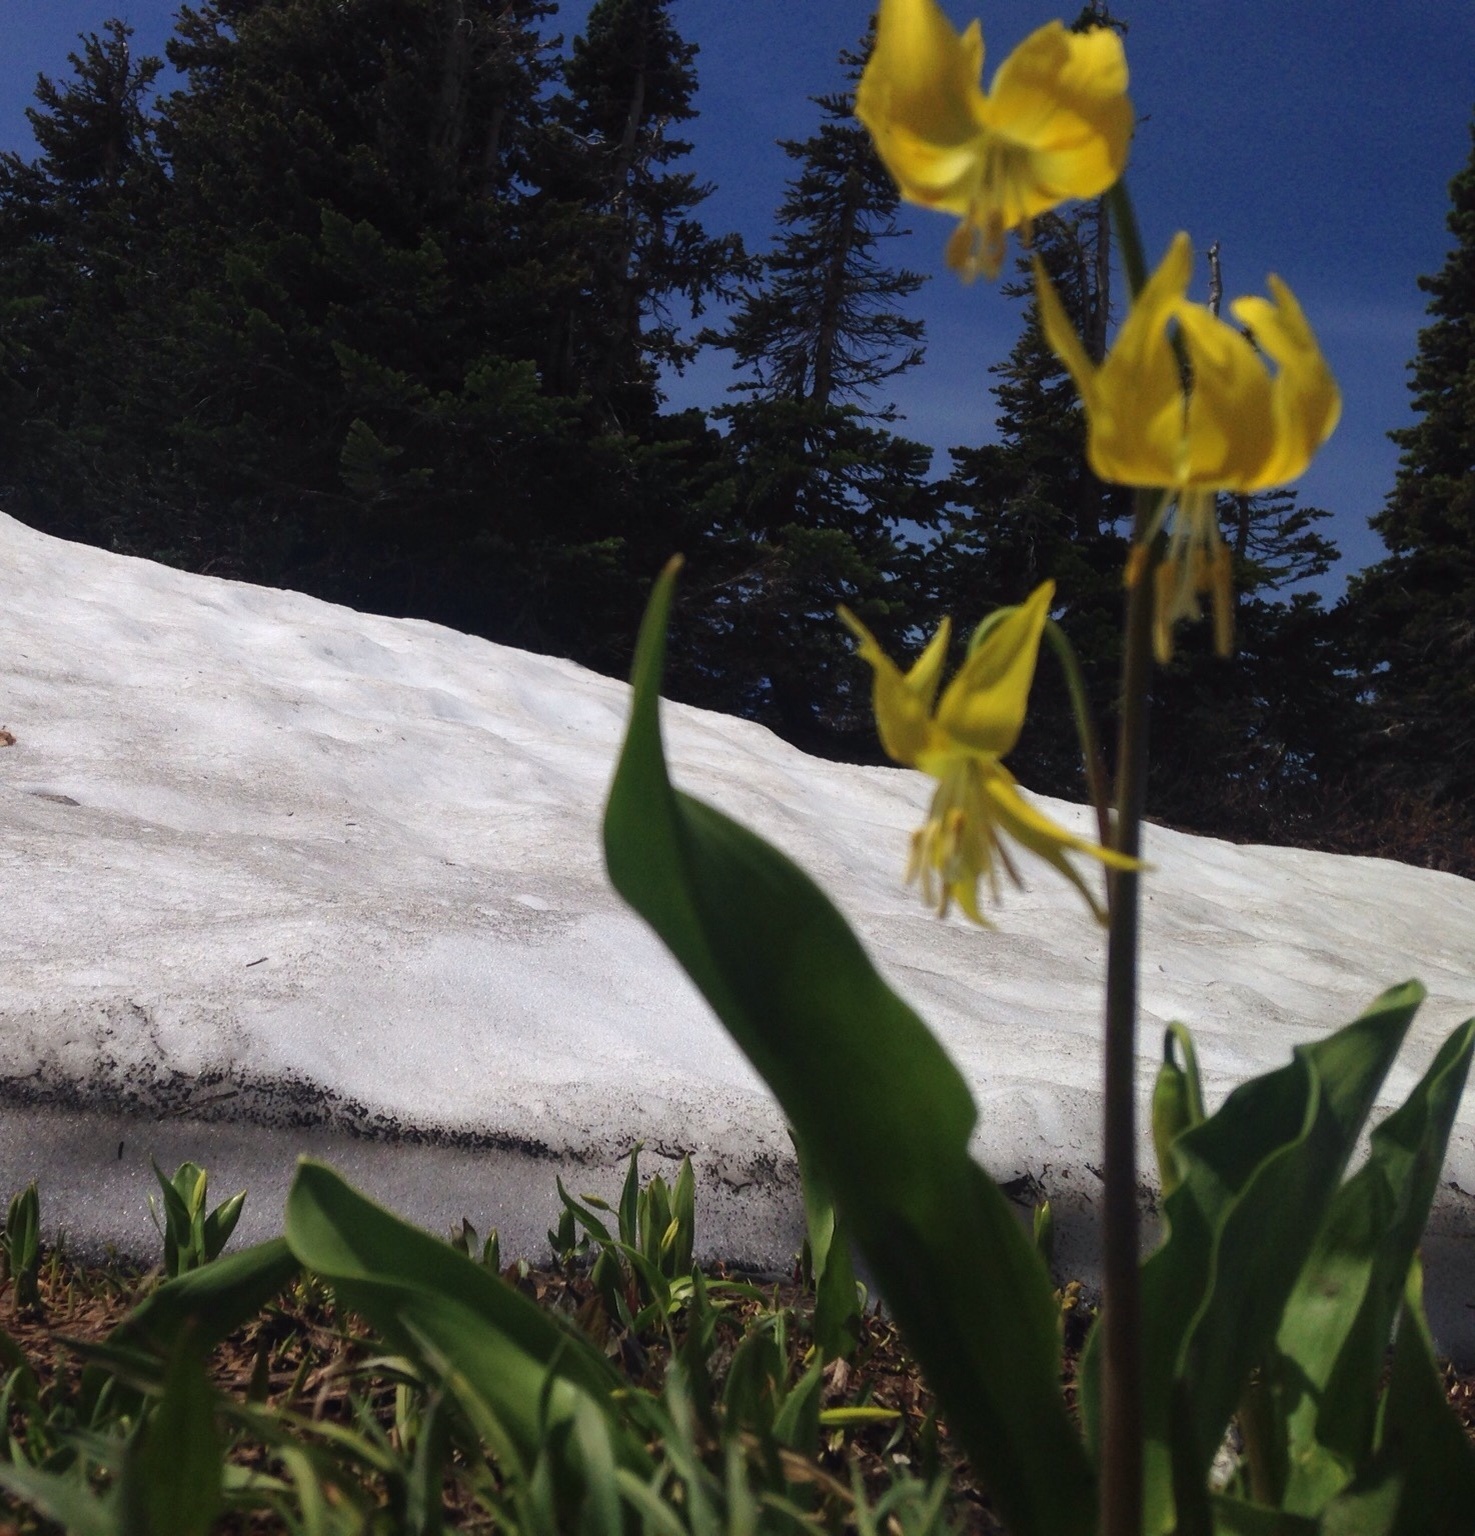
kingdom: Plantae
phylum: Tracheophyta
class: Liliopsida
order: Liliales
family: Liliaceae
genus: Erythronium
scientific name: Erythronium grandiflorum
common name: Avalanche-lily
